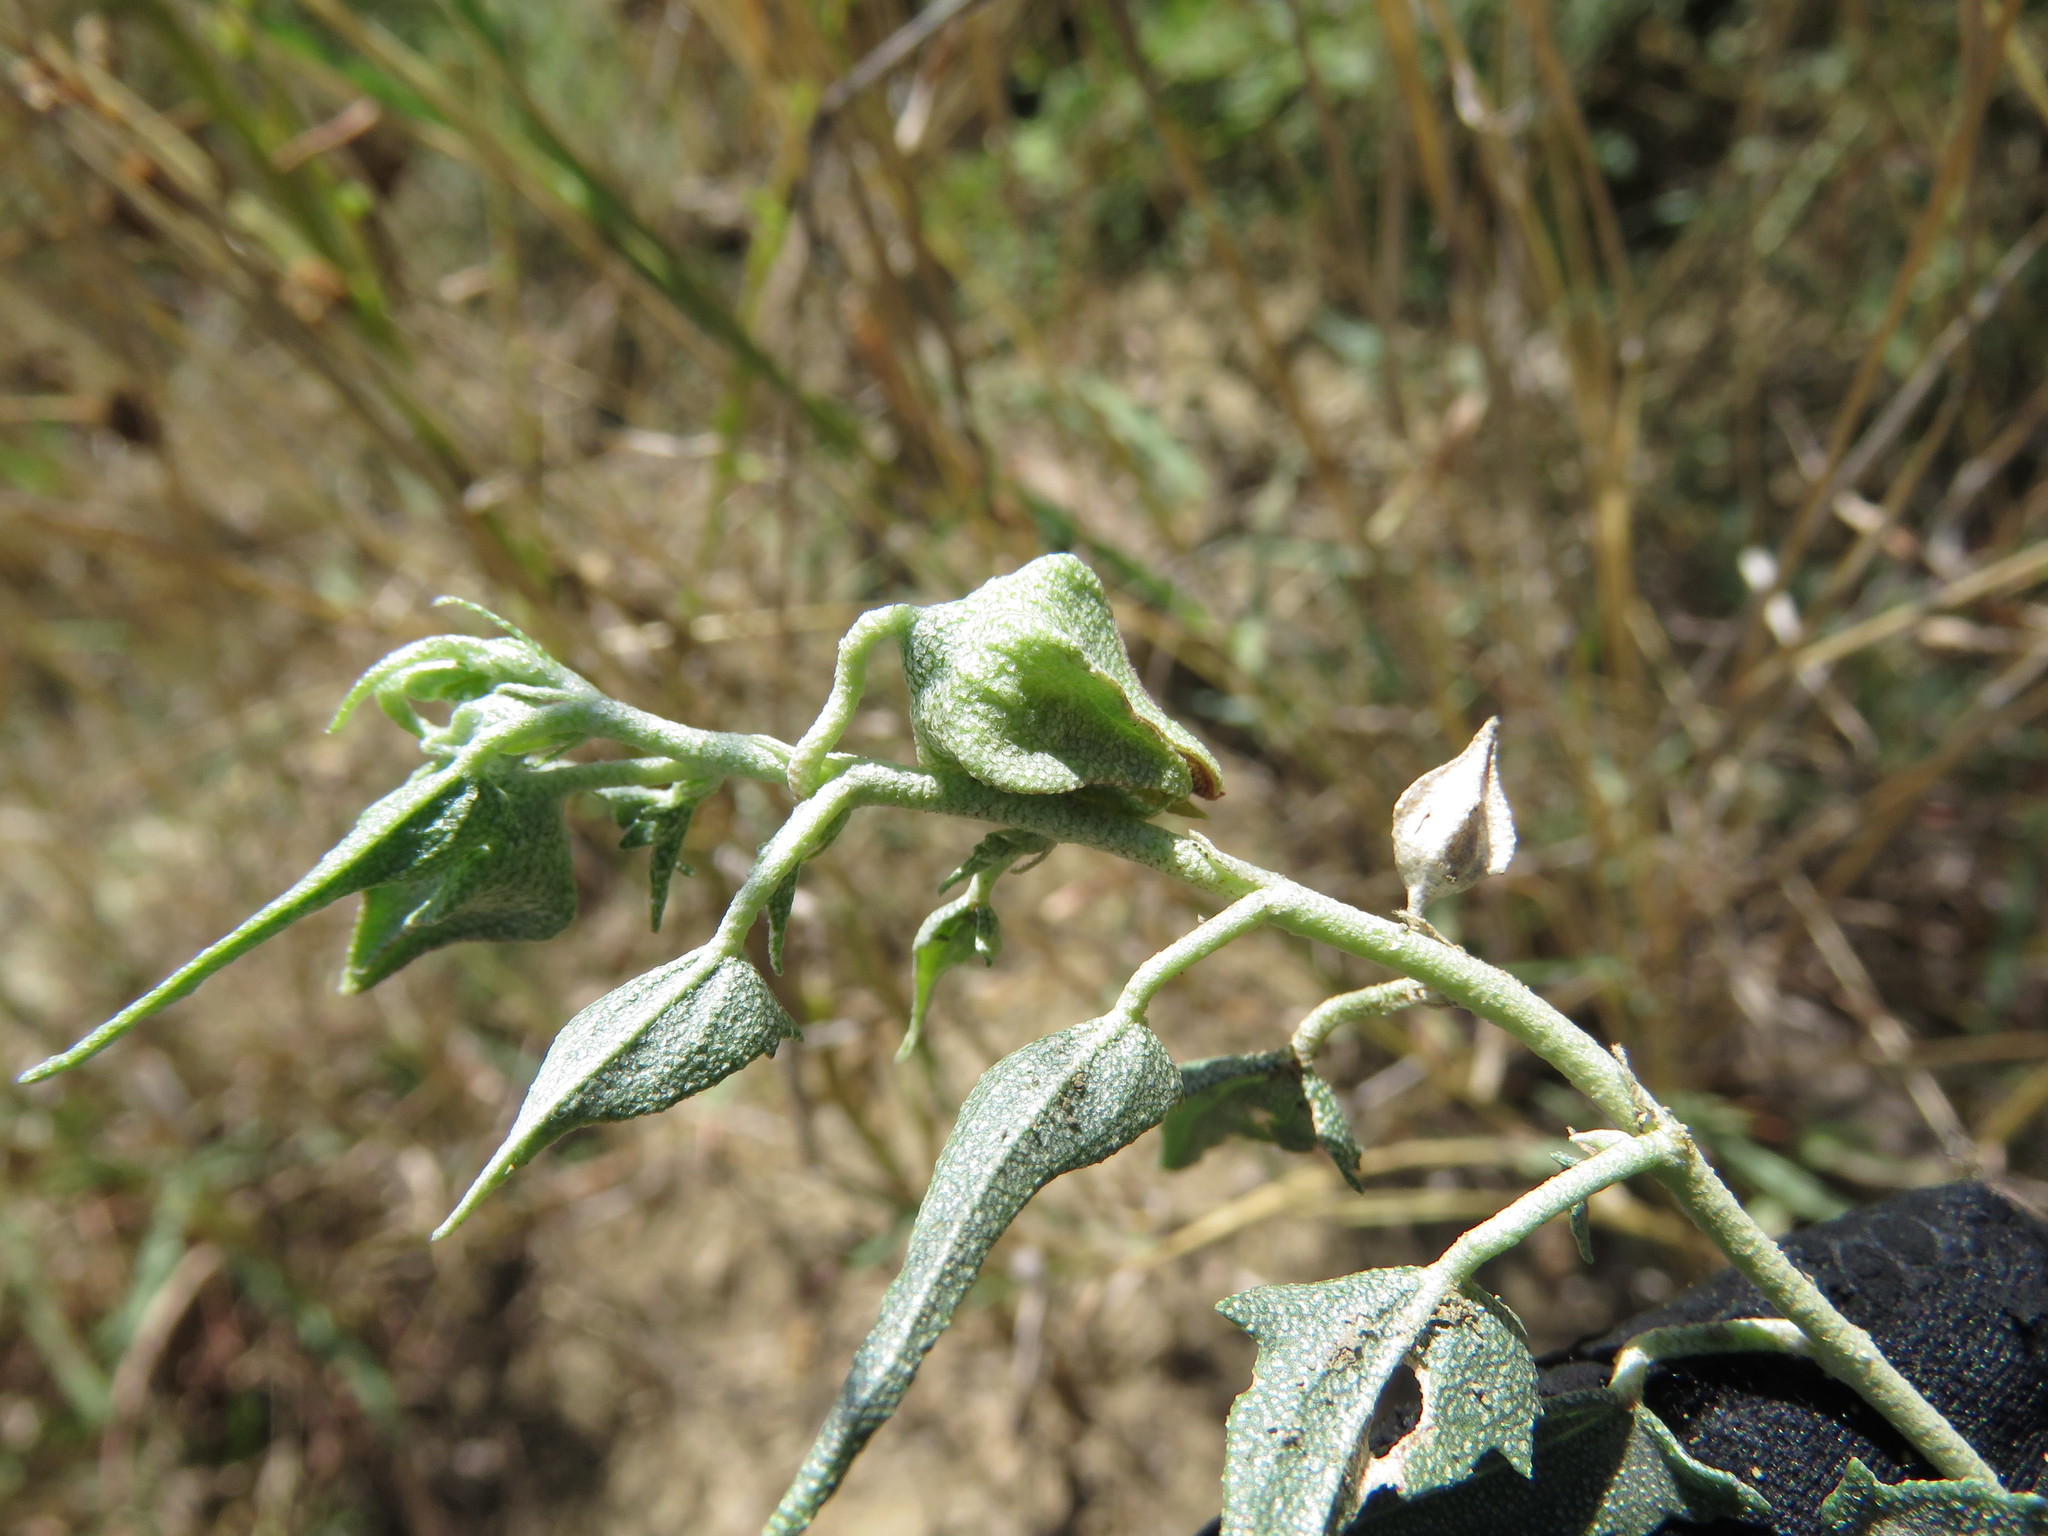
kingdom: Plantae
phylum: Tracheophyta
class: Magnoliopsida
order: Malvales
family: Malvaceae
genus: Malvella
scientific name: Malvella sagittifolia
